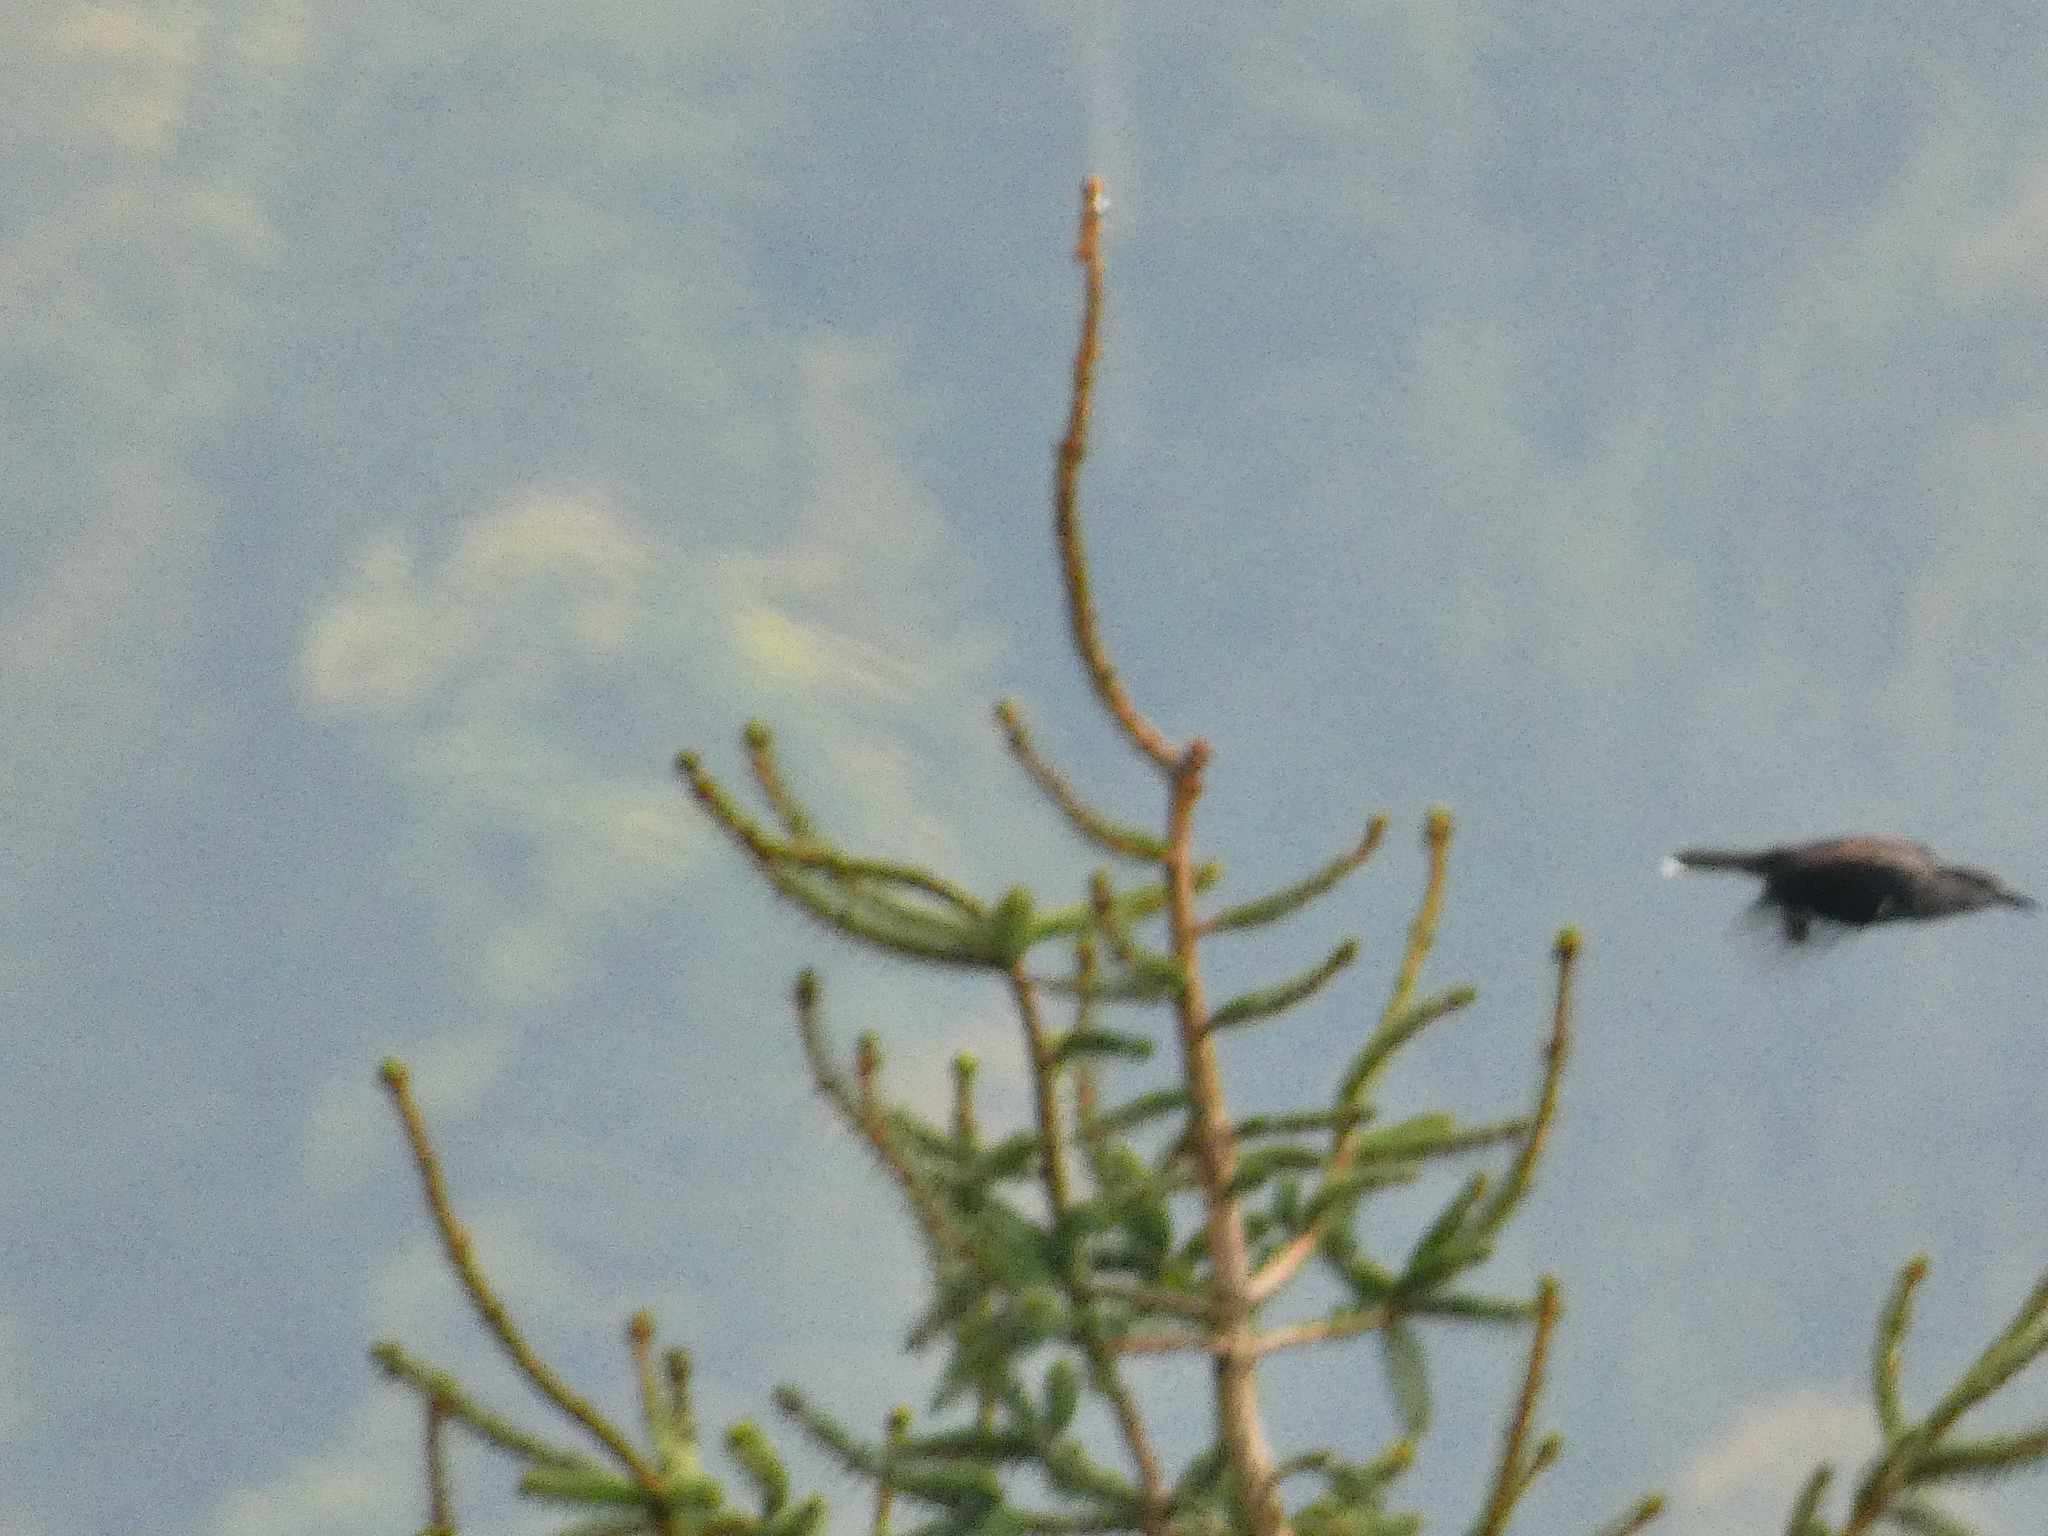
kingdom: Animalia
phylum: Chordata
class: Aves
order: Passeriformes
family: Corvidae
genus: Nucifraga
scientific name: Nucifraga caryocatactes
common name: Spotted nutcracker
